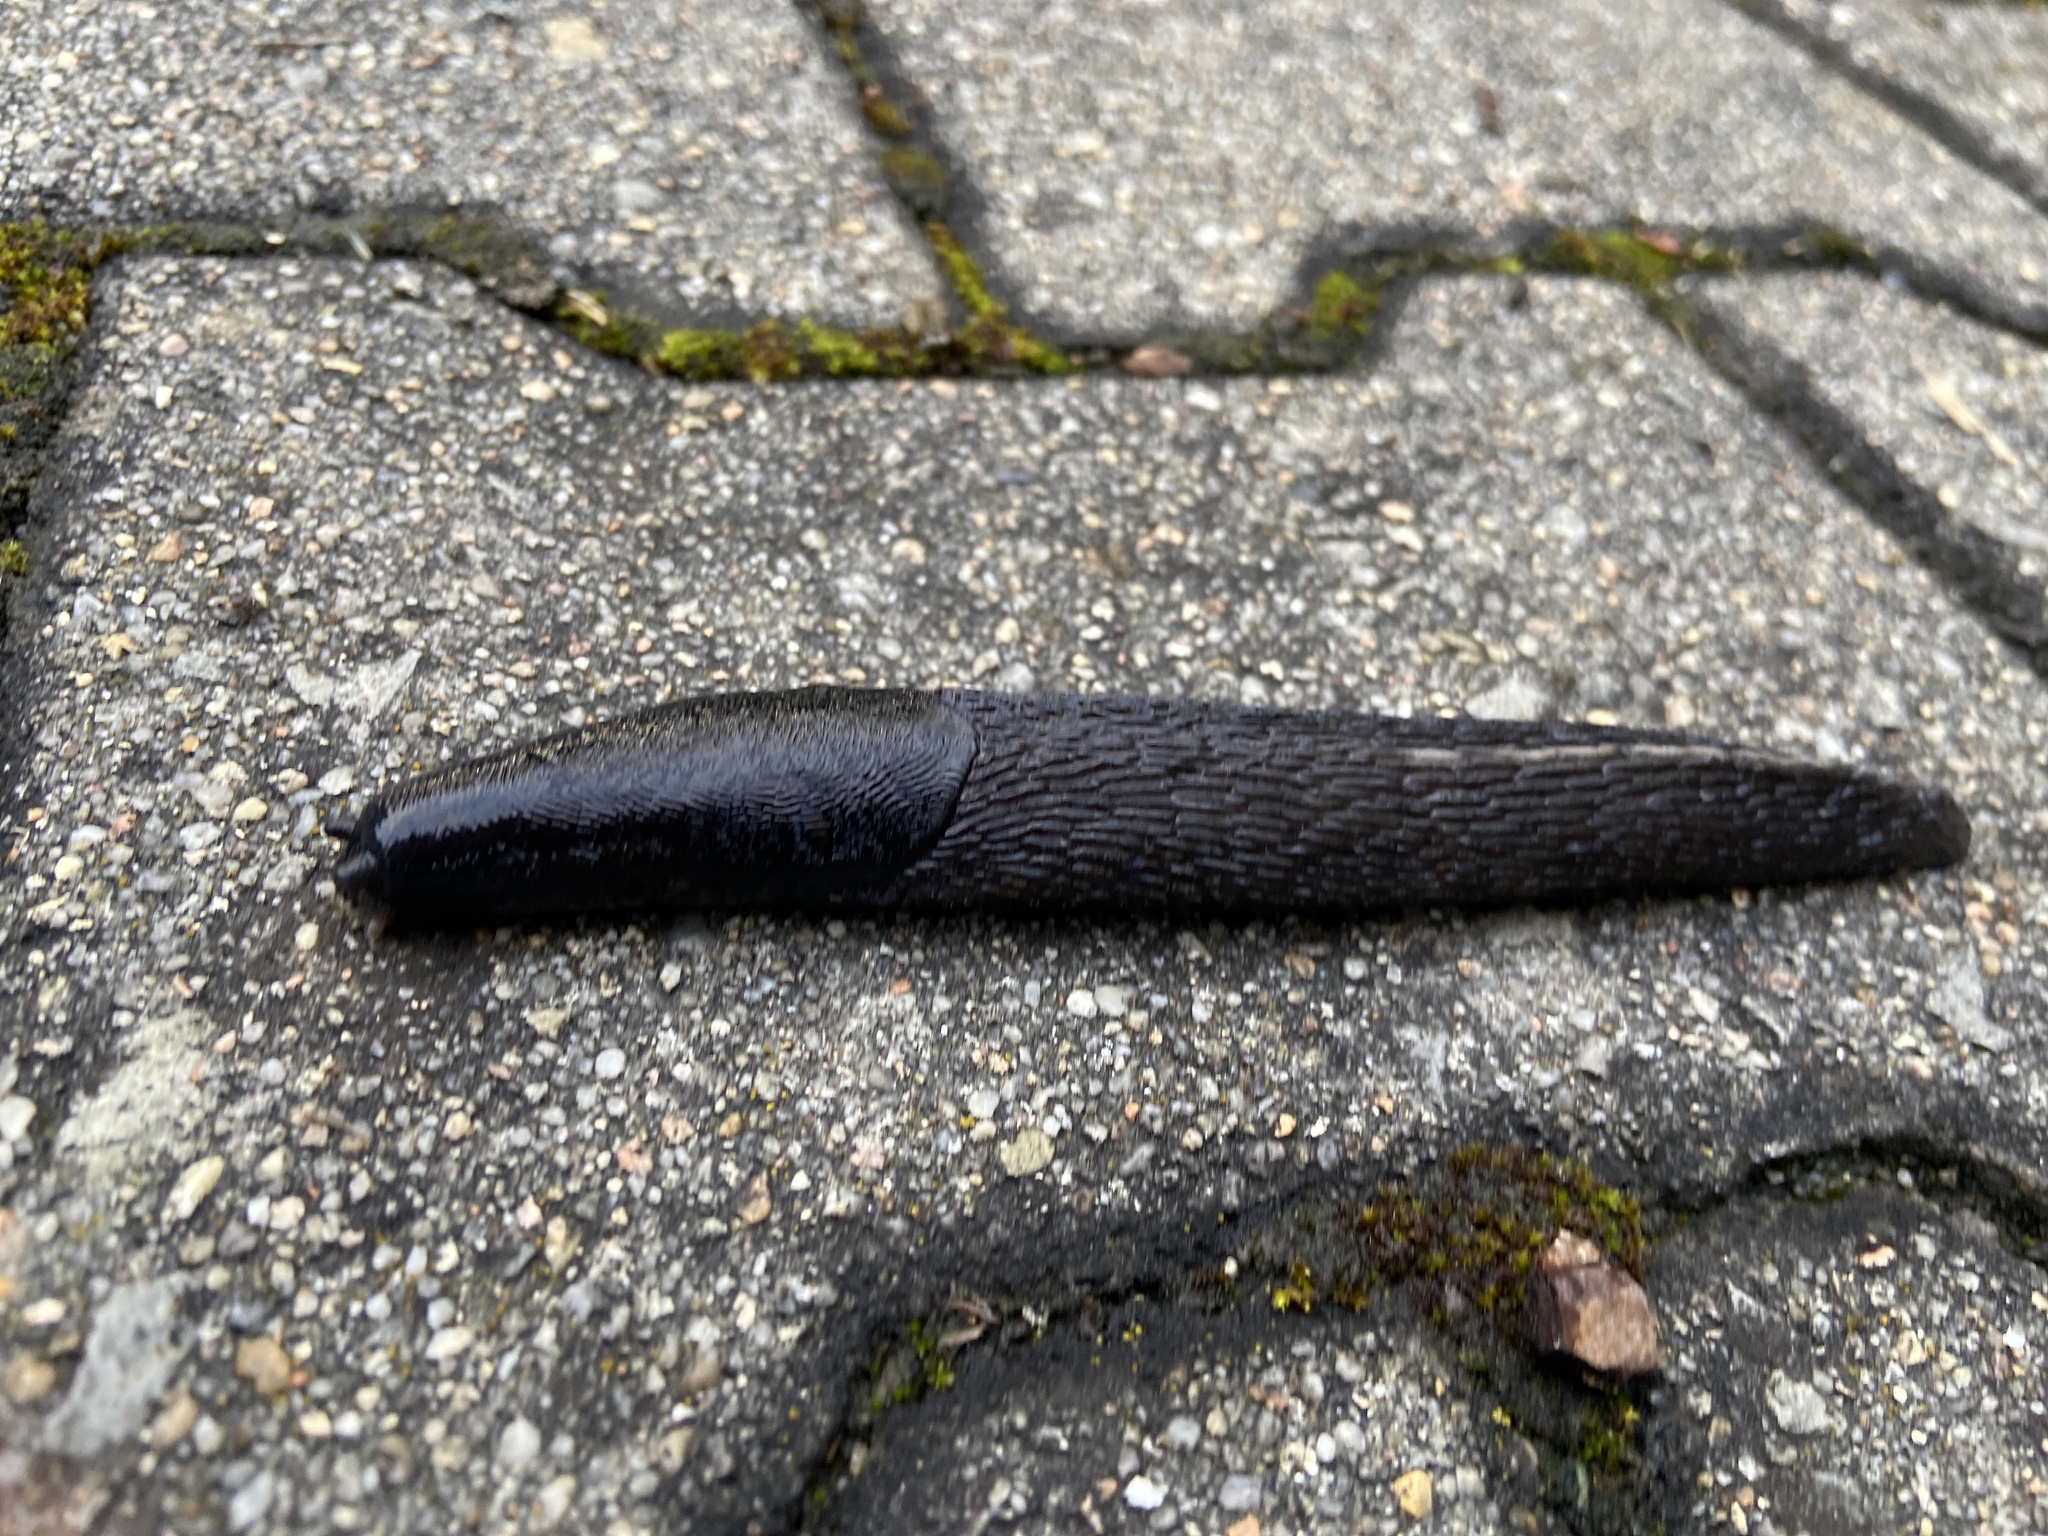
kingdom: Animalia
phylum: Mollusca
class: Gastropoda
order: Stylommatophora
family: Limacidae
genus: Limax
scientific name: Limax cinereoniger
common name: Ash-black slug
